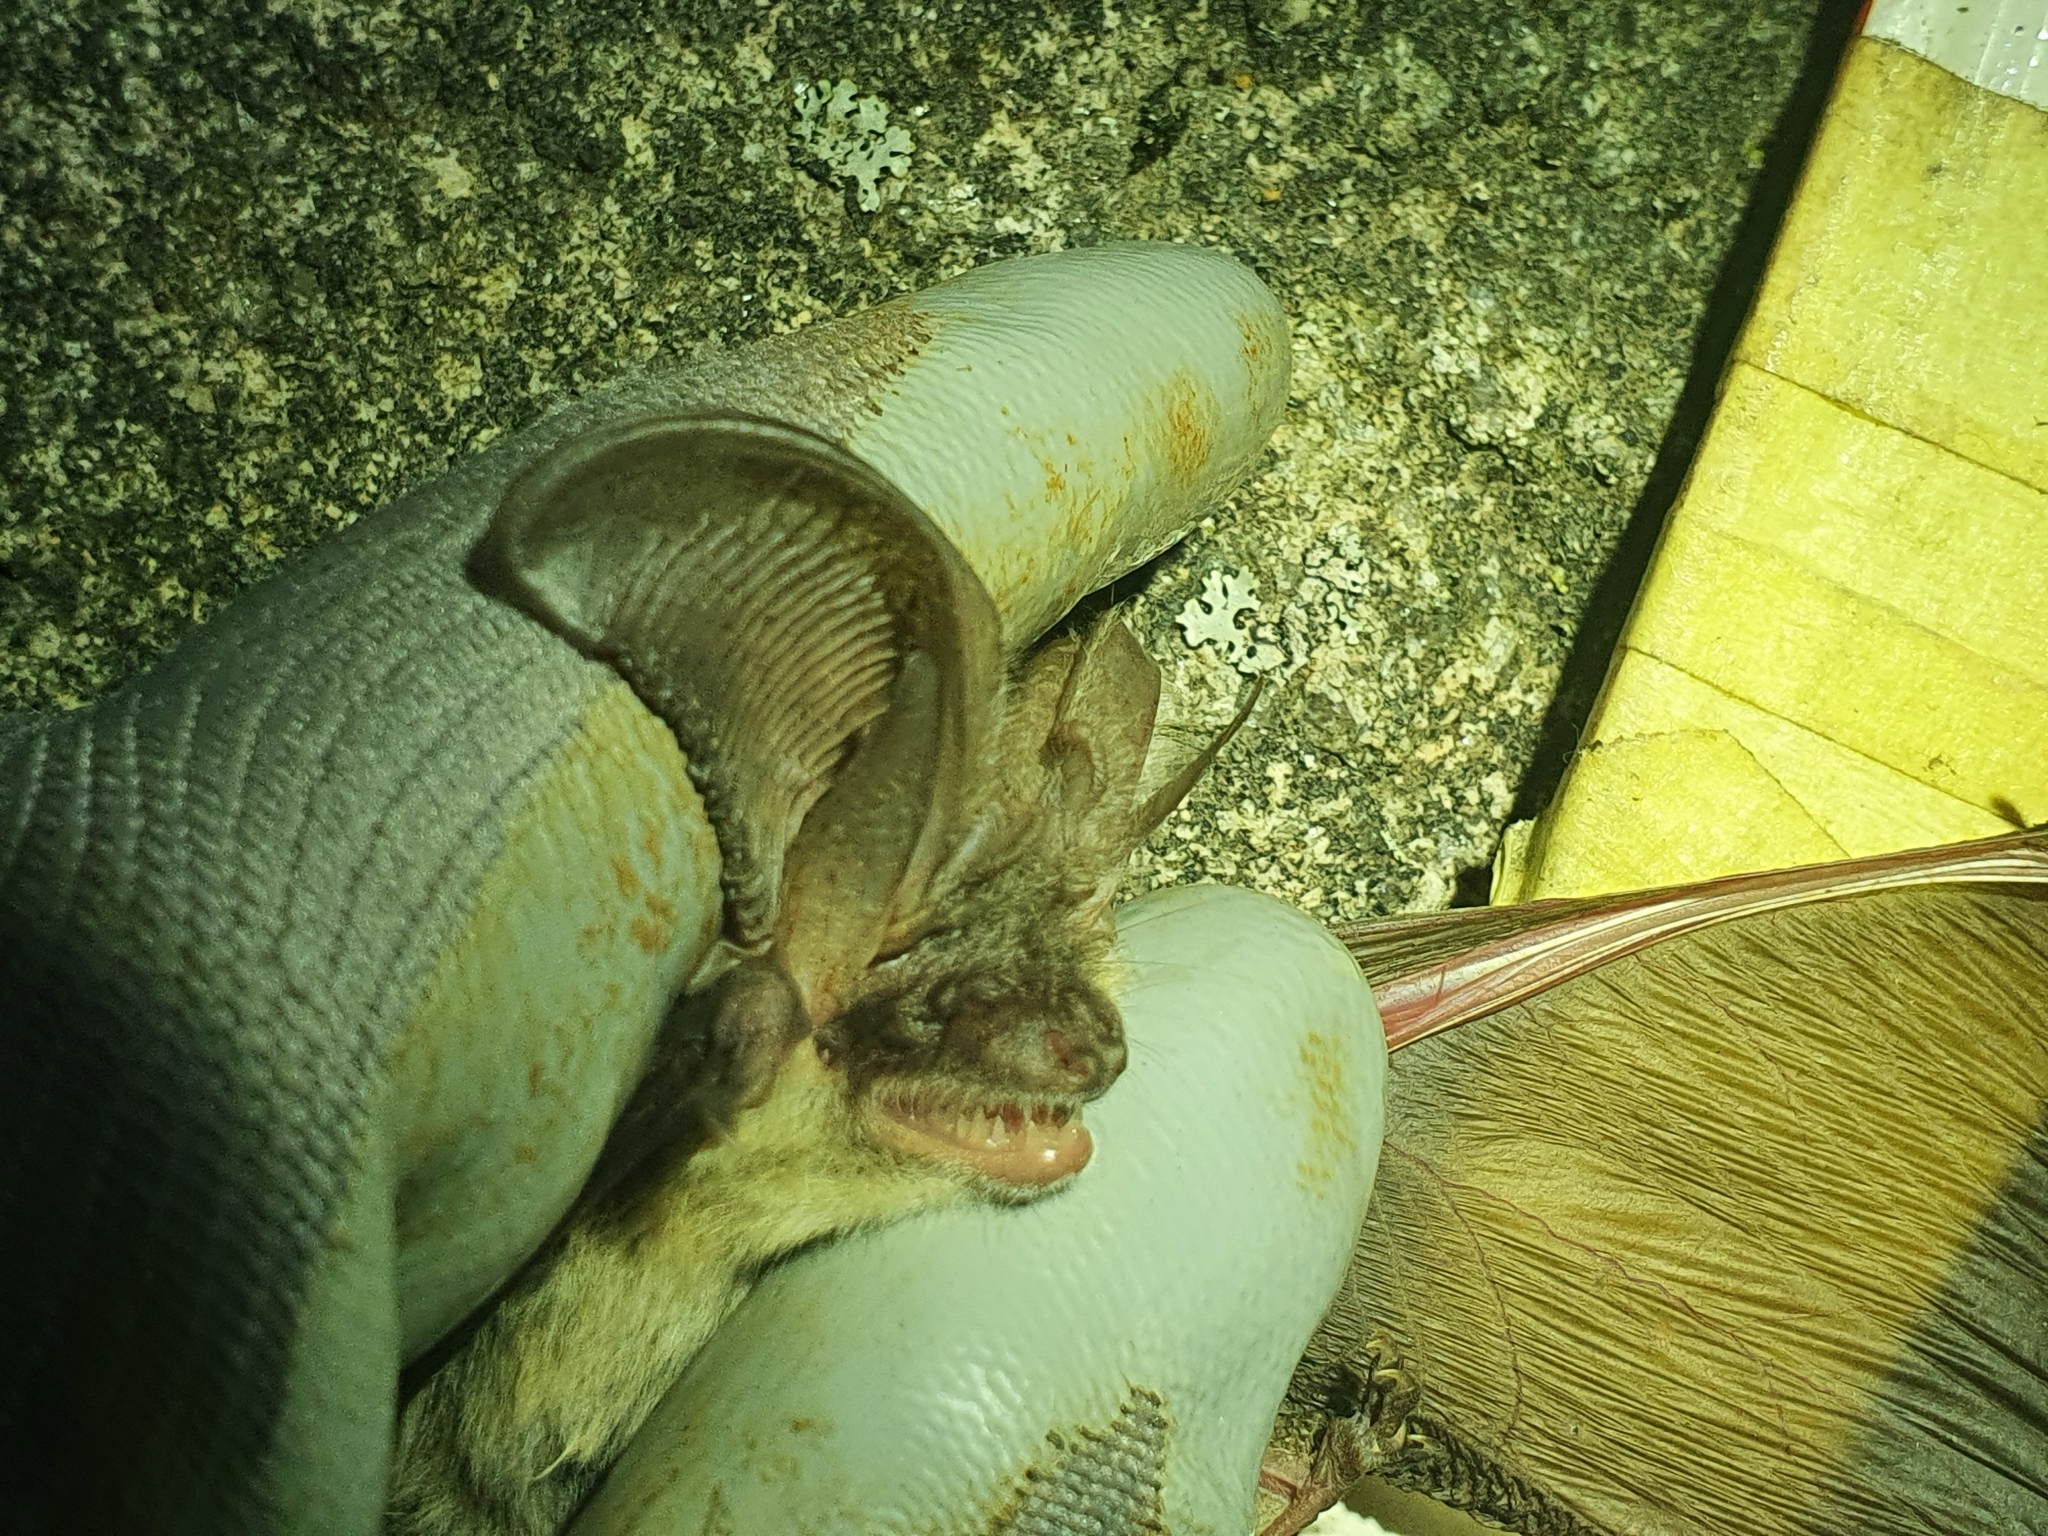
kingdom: Animalia
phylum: Chordata
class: Mammalia
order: Chiroptera
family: Vespertilionidae
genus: Plecotus
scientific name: Plecotus austriacus
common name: Grey long-eared bat
